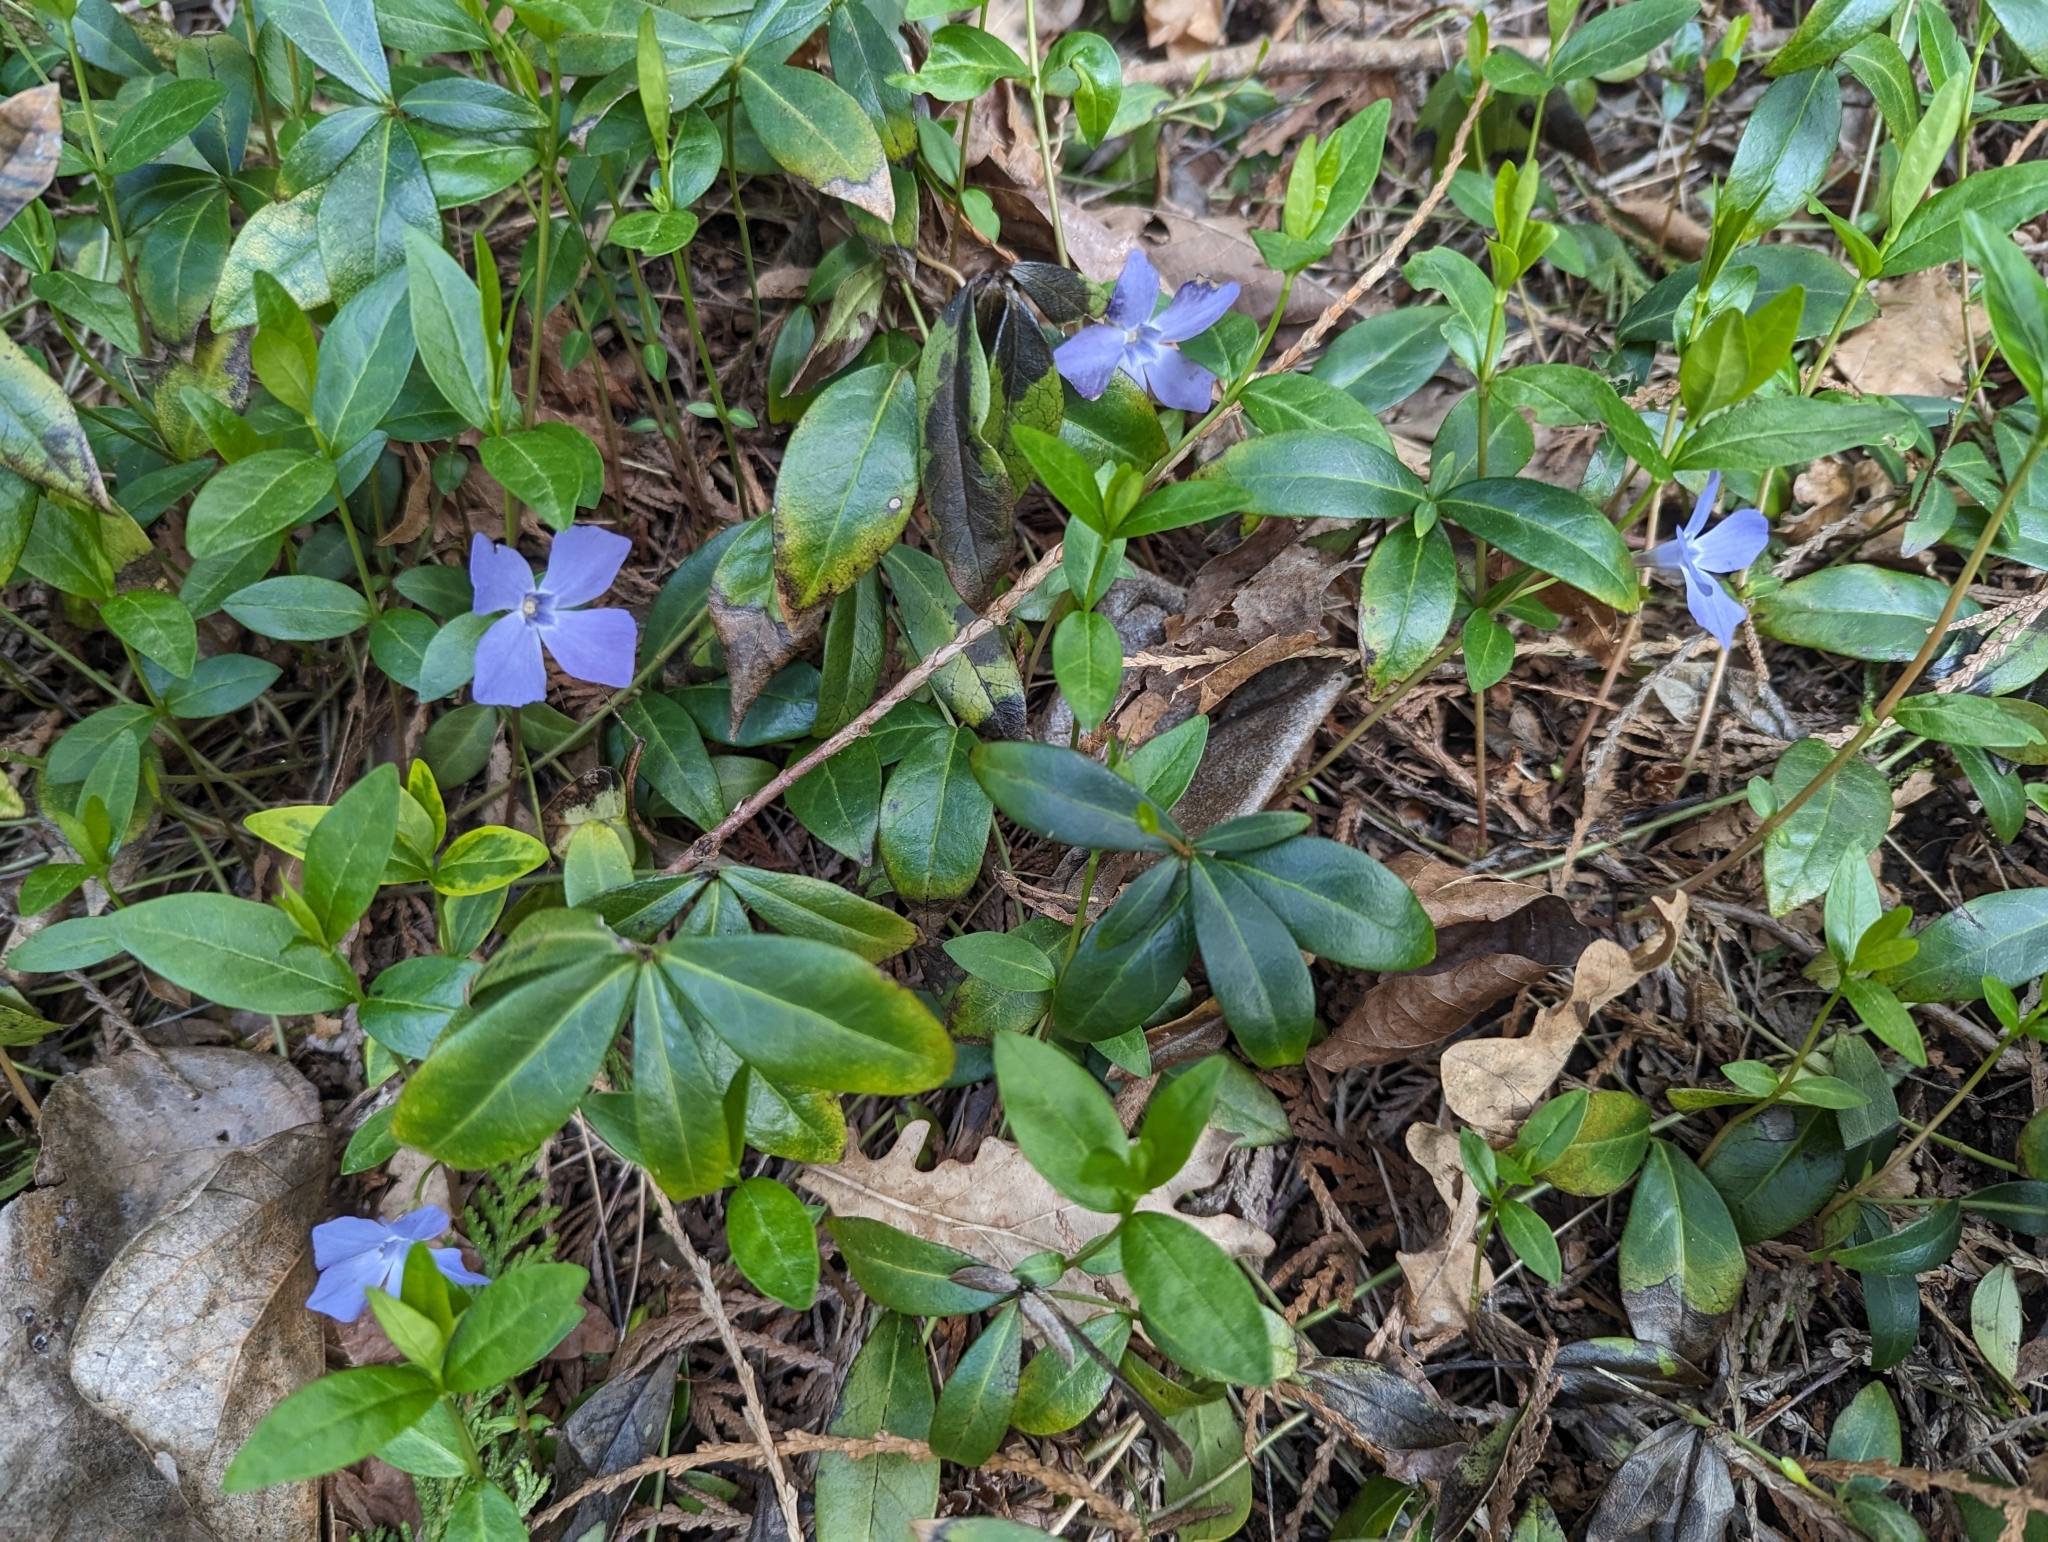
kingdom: Plantae
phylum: Tracheophyta
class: Magnoliopsida
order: Gentianales
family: Apocynaceae
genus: Vinca
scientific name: Vinca minor
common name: Lesser periwinkle
